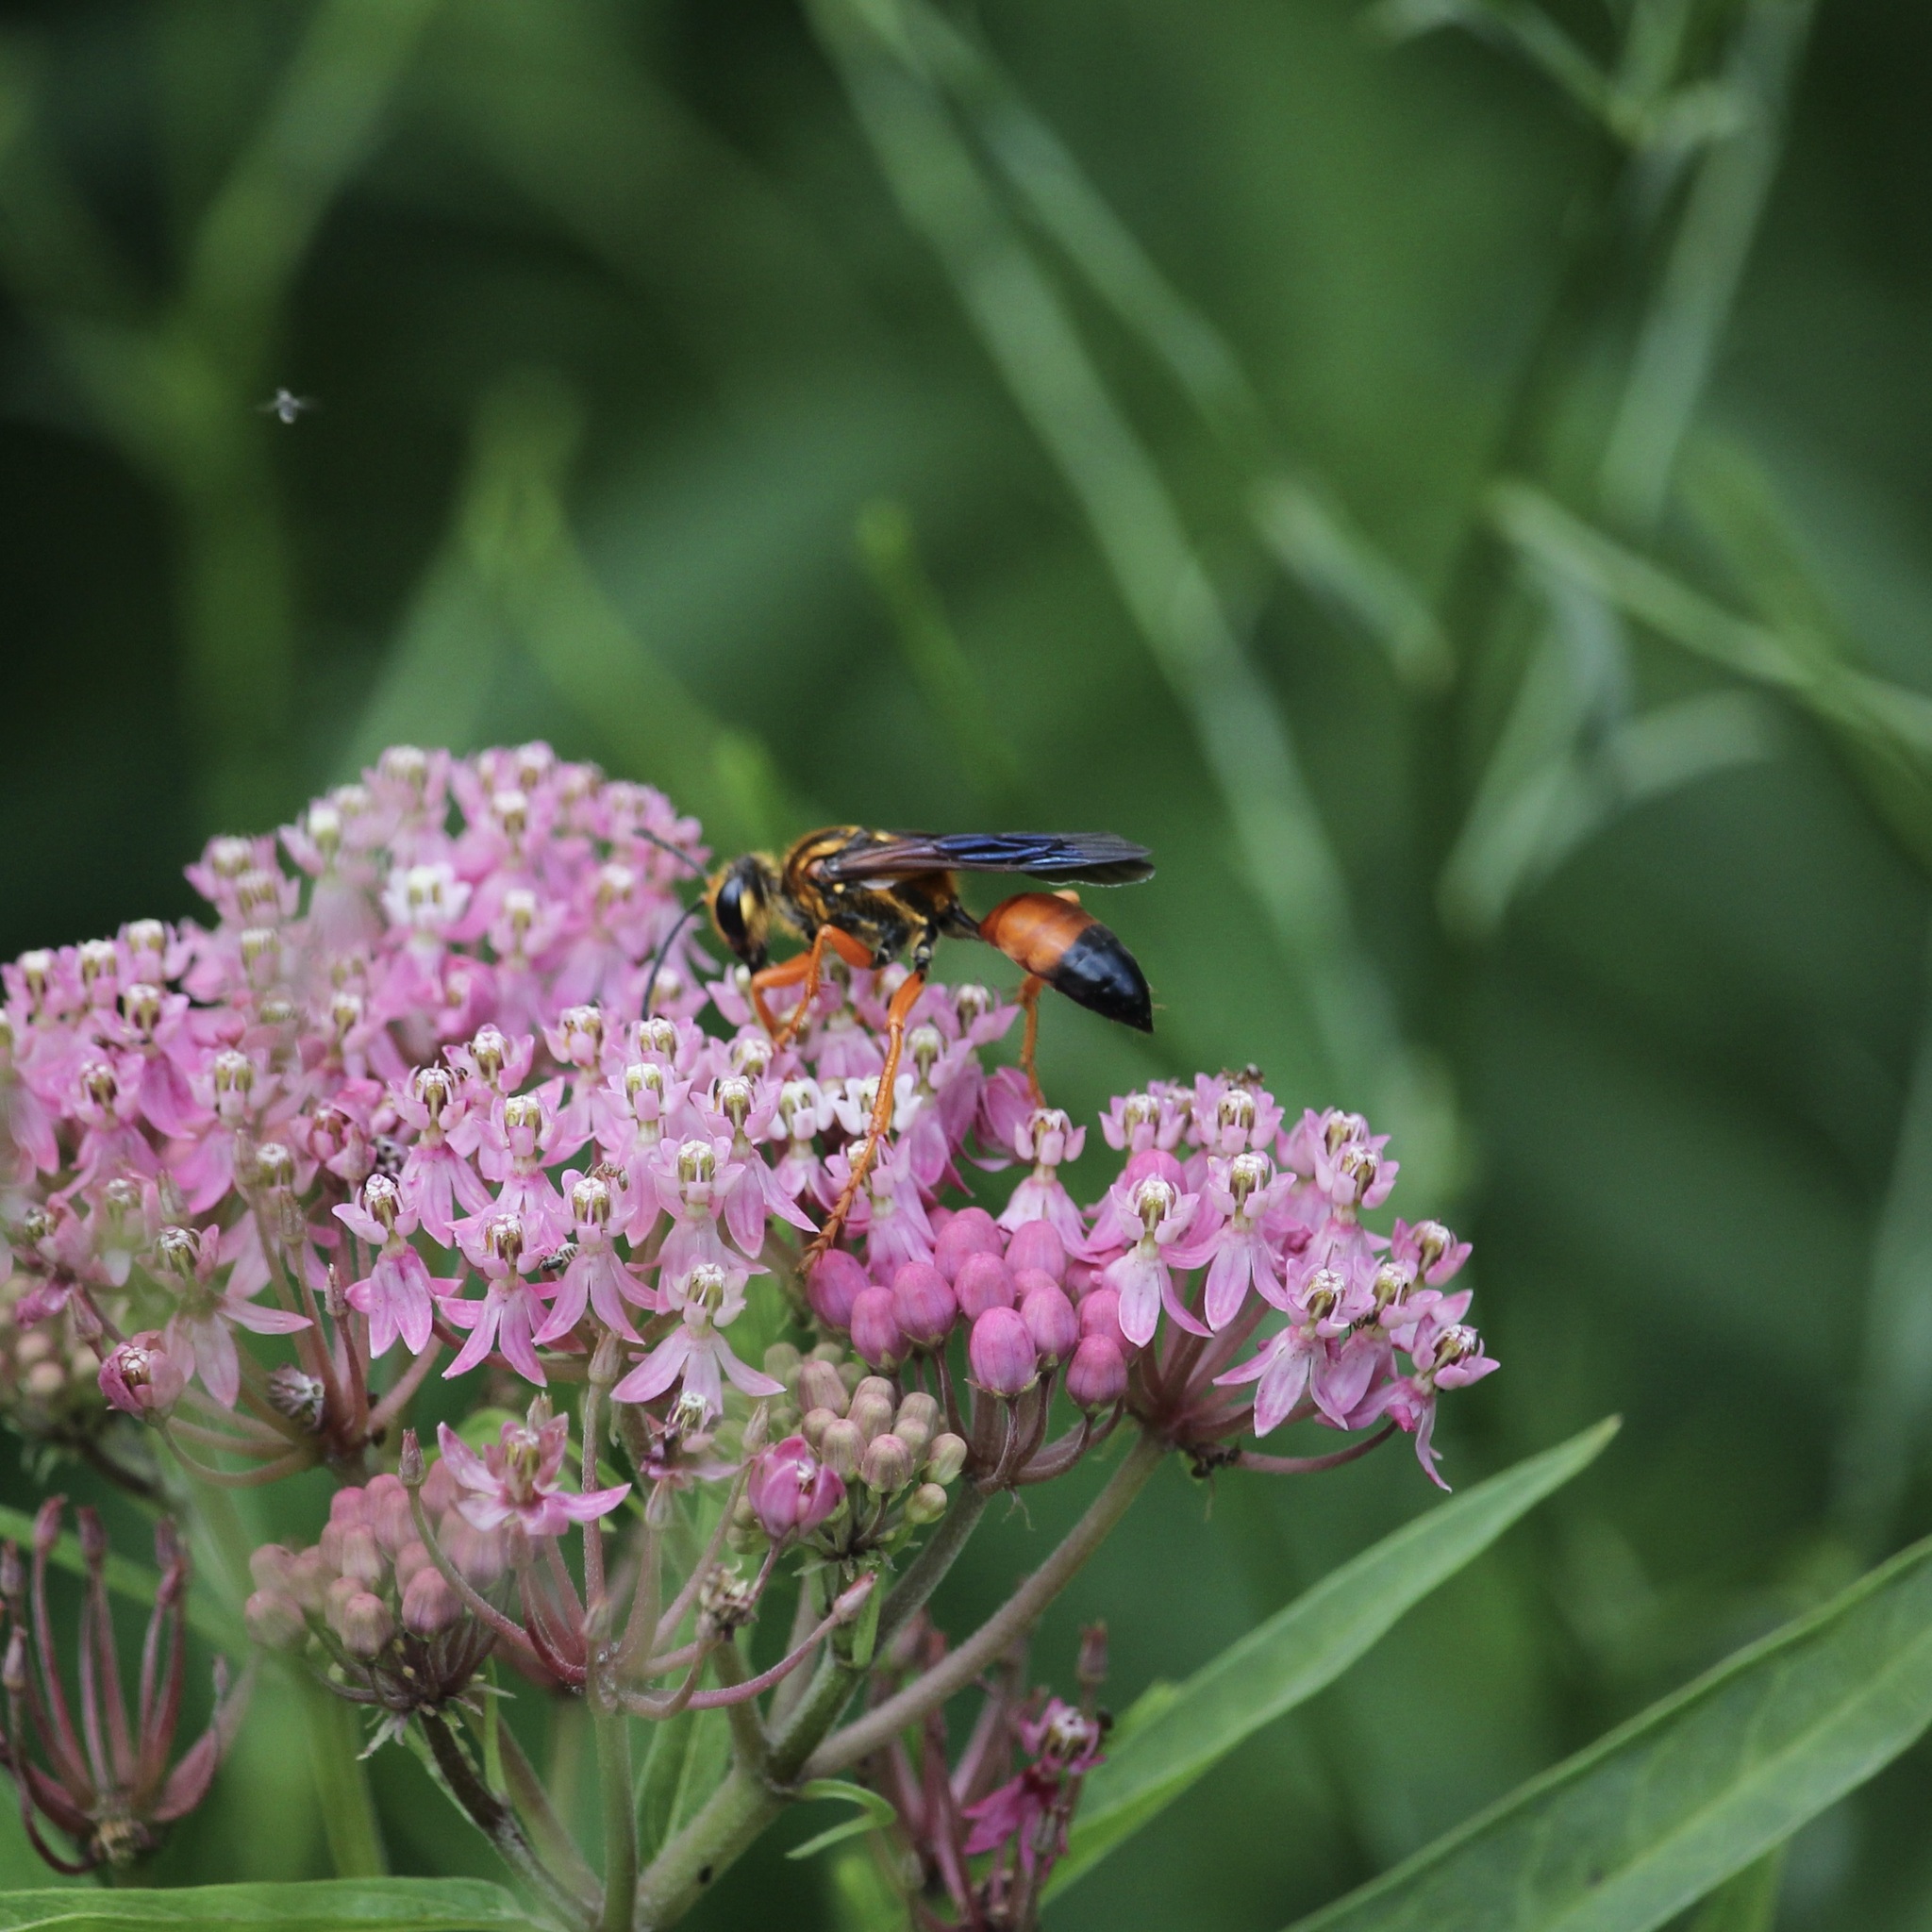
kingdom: Animalia
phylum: Arthropoda
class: Insecta
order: Hymenoptera
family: Sphecidae
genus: Sphex
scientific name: Sphex ichneumoneus
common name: Great golden digger wasp
